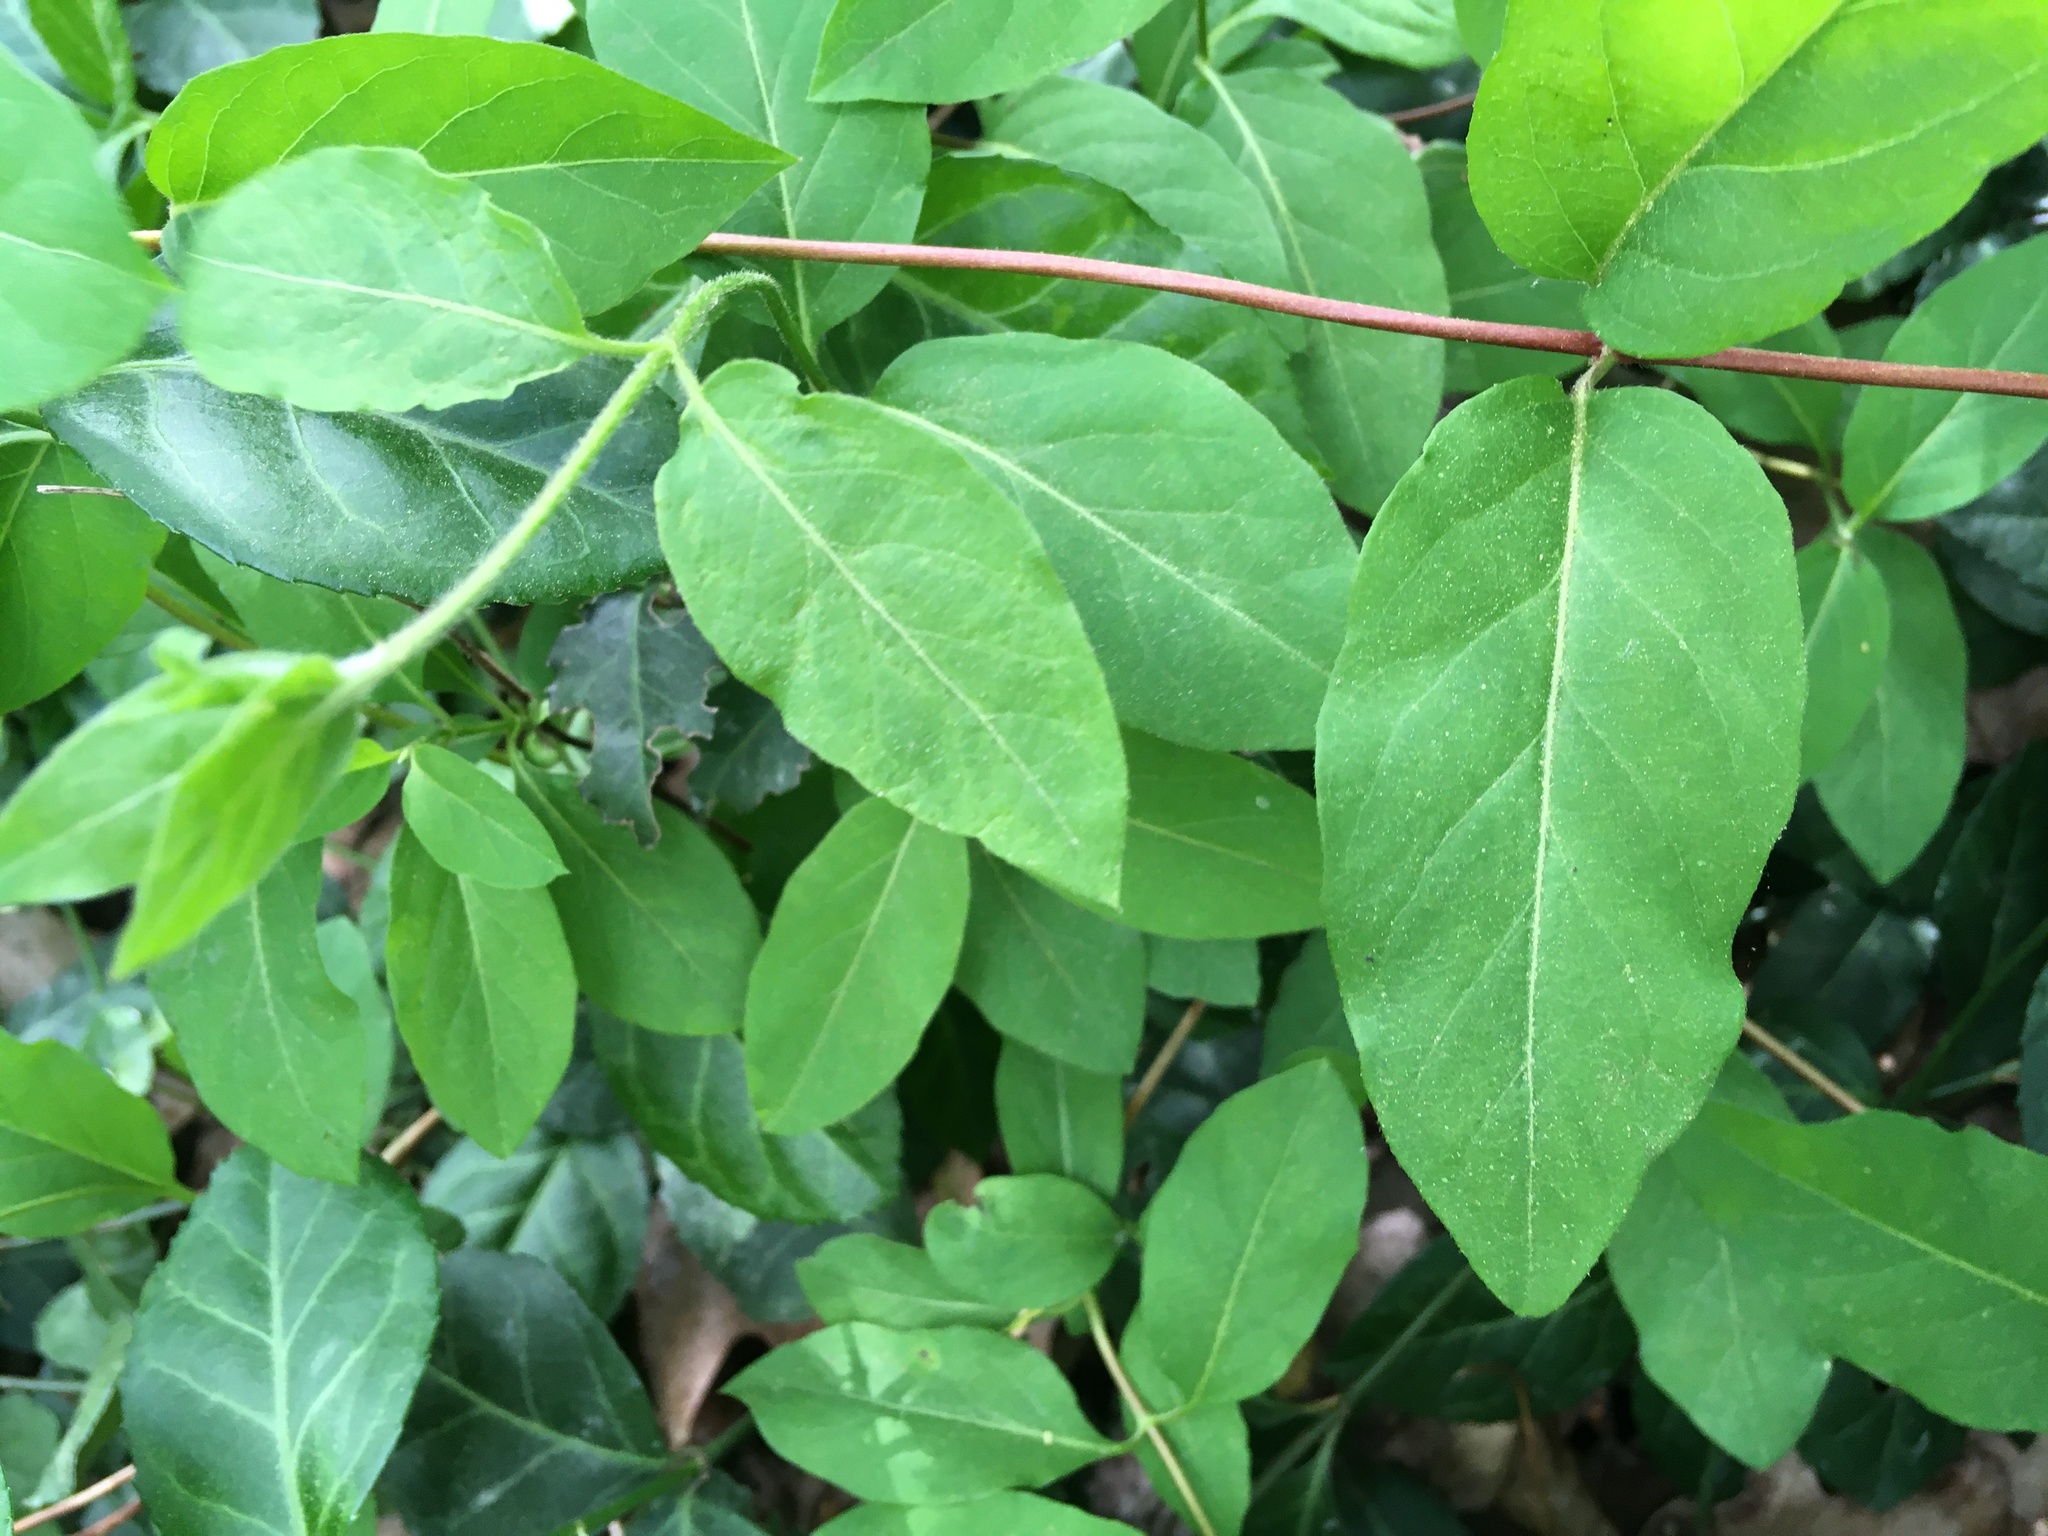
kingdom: Plantae
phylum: Tracheophyta
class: Magnoliopsida
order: Dipsacales
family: Caprifoliaceae
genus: Lonicera
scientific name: Lonicera japonica
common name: Japanese honeysuckle
